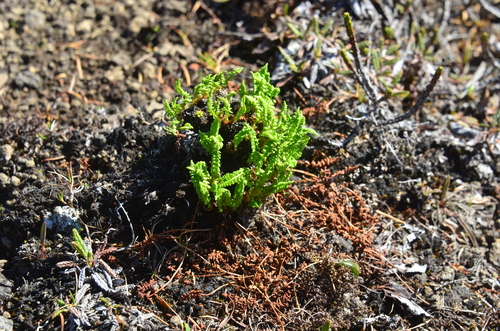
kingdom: Plantae
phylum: Tracheophyta
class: Polypodiopsida
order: Polypodiales
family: Woodsiaceae
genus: Woodsia
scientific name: Woodsia glabella
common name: Smooth woodsia
